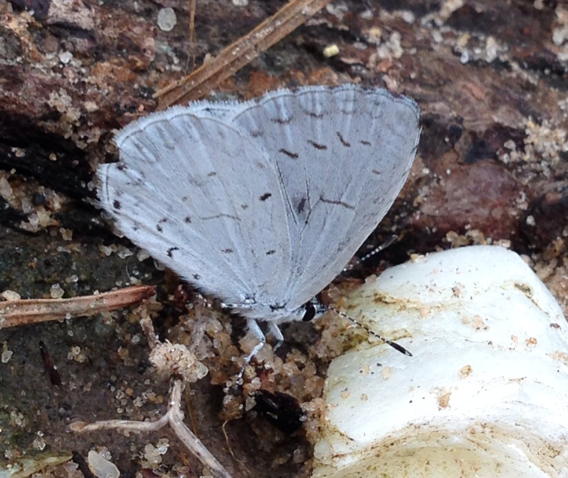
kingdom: Animalia
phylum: Arthropoda
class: Insecta
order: Lepidoptera
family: Lycaenidae
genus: Celastrina
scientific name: Celastrina
